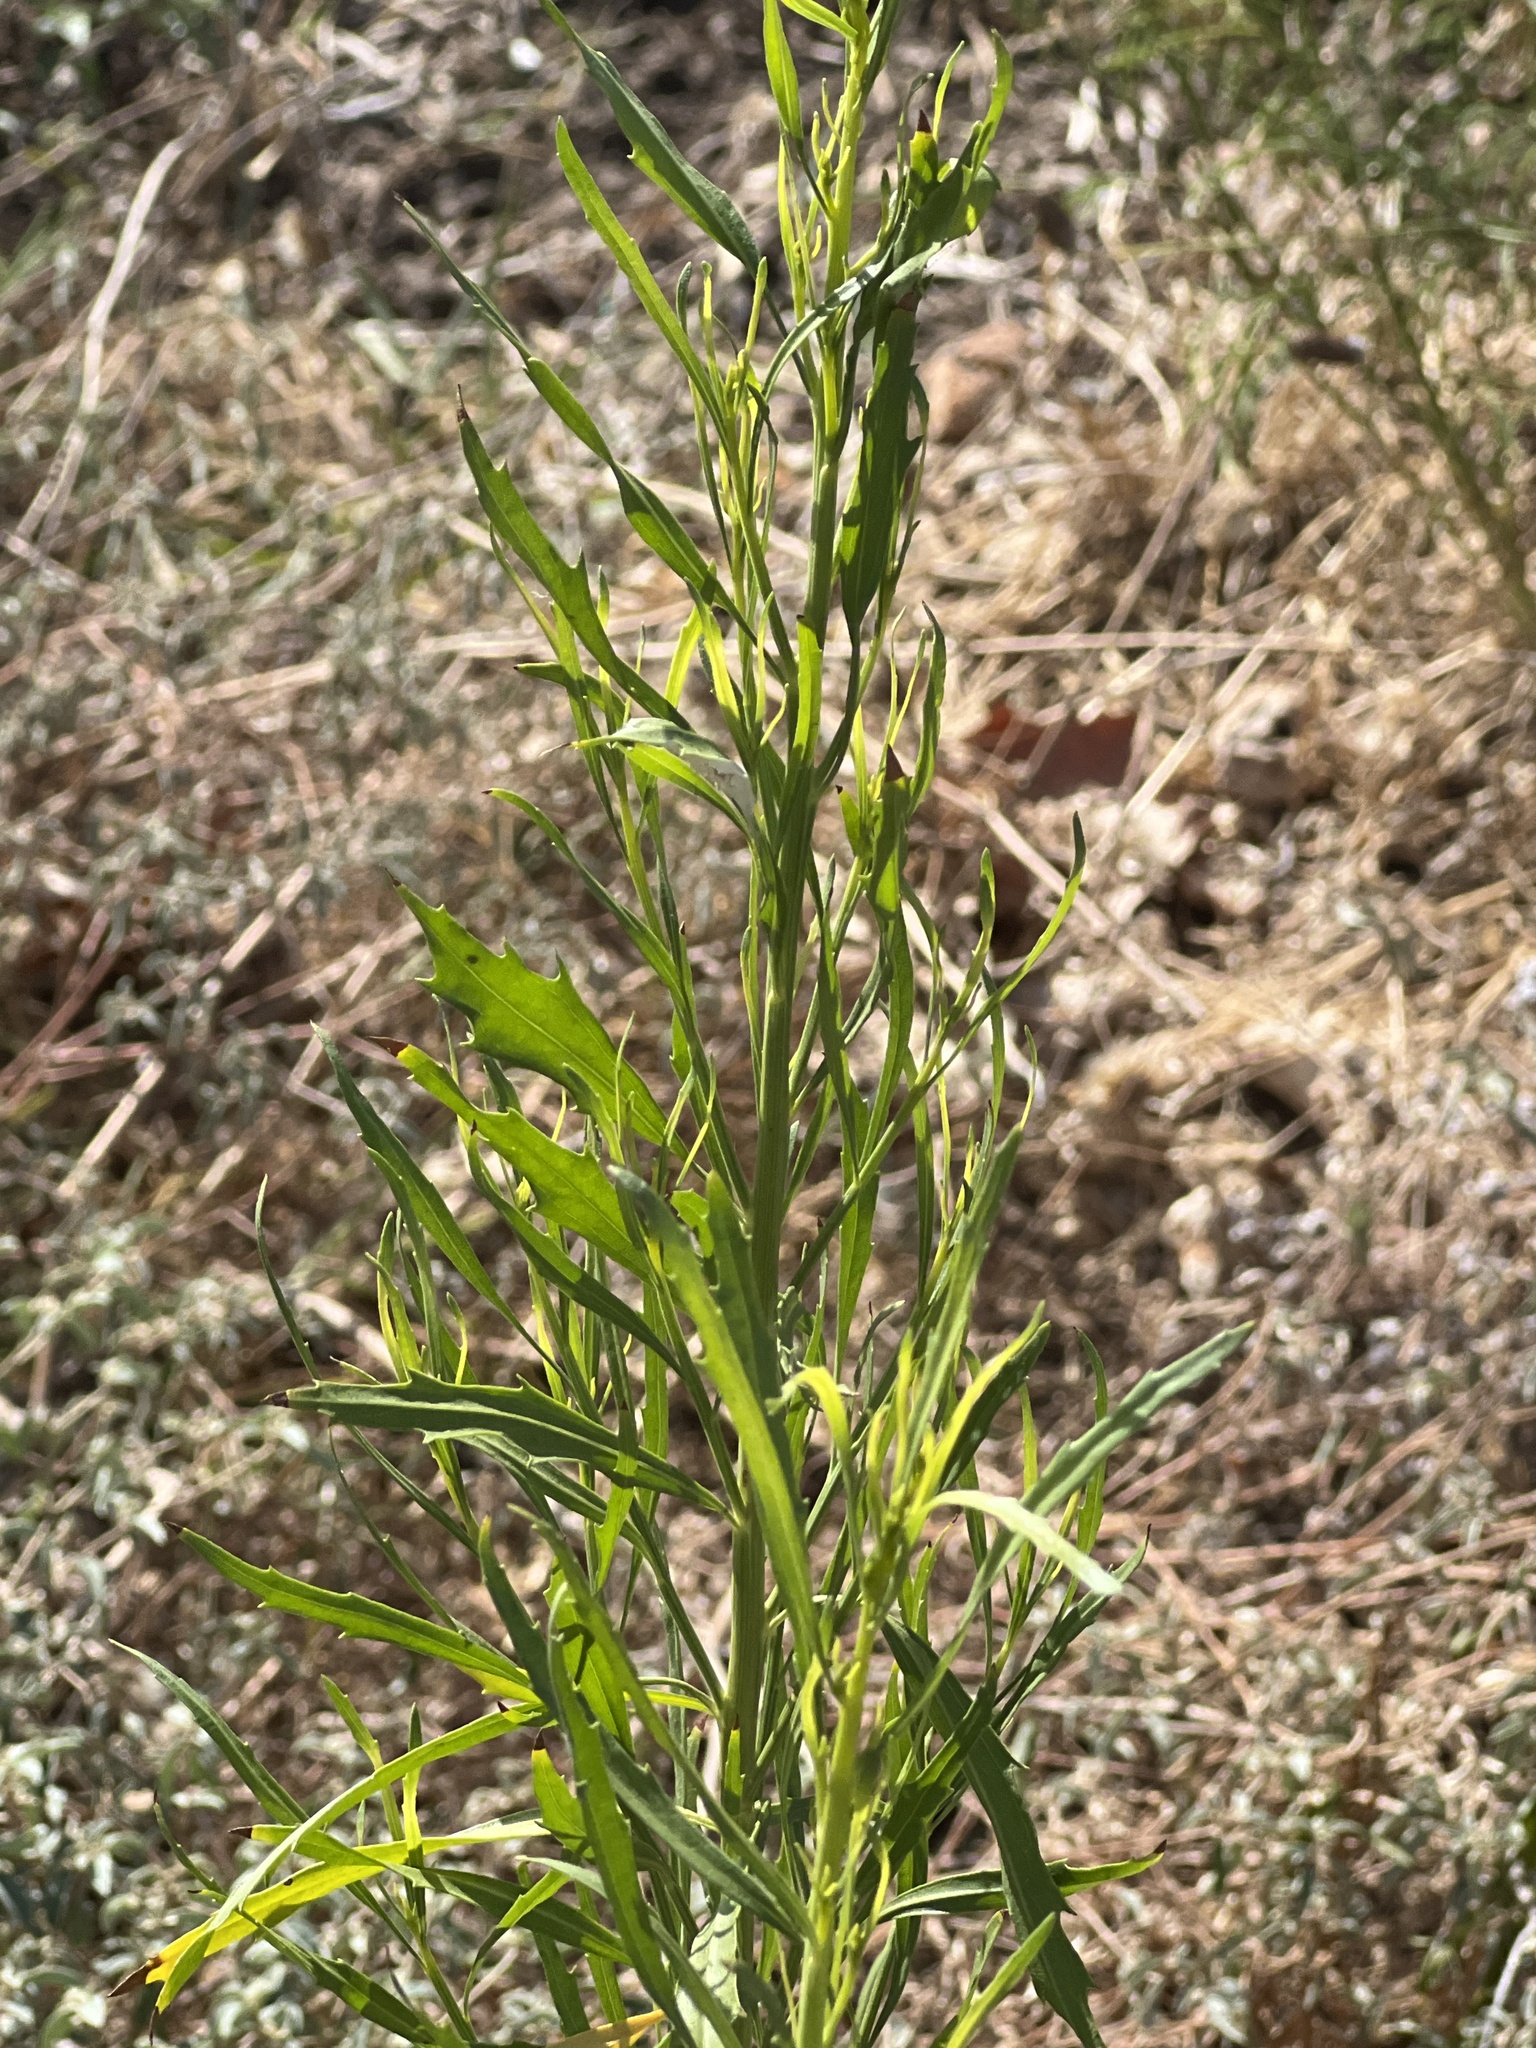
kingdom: Plantae
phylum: Tracheophyta
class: Magnoliopsida
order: Asterales
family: Asteraceae
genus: Baccharis
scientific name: Baccharis neglecta
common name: Roosevelt-weed
